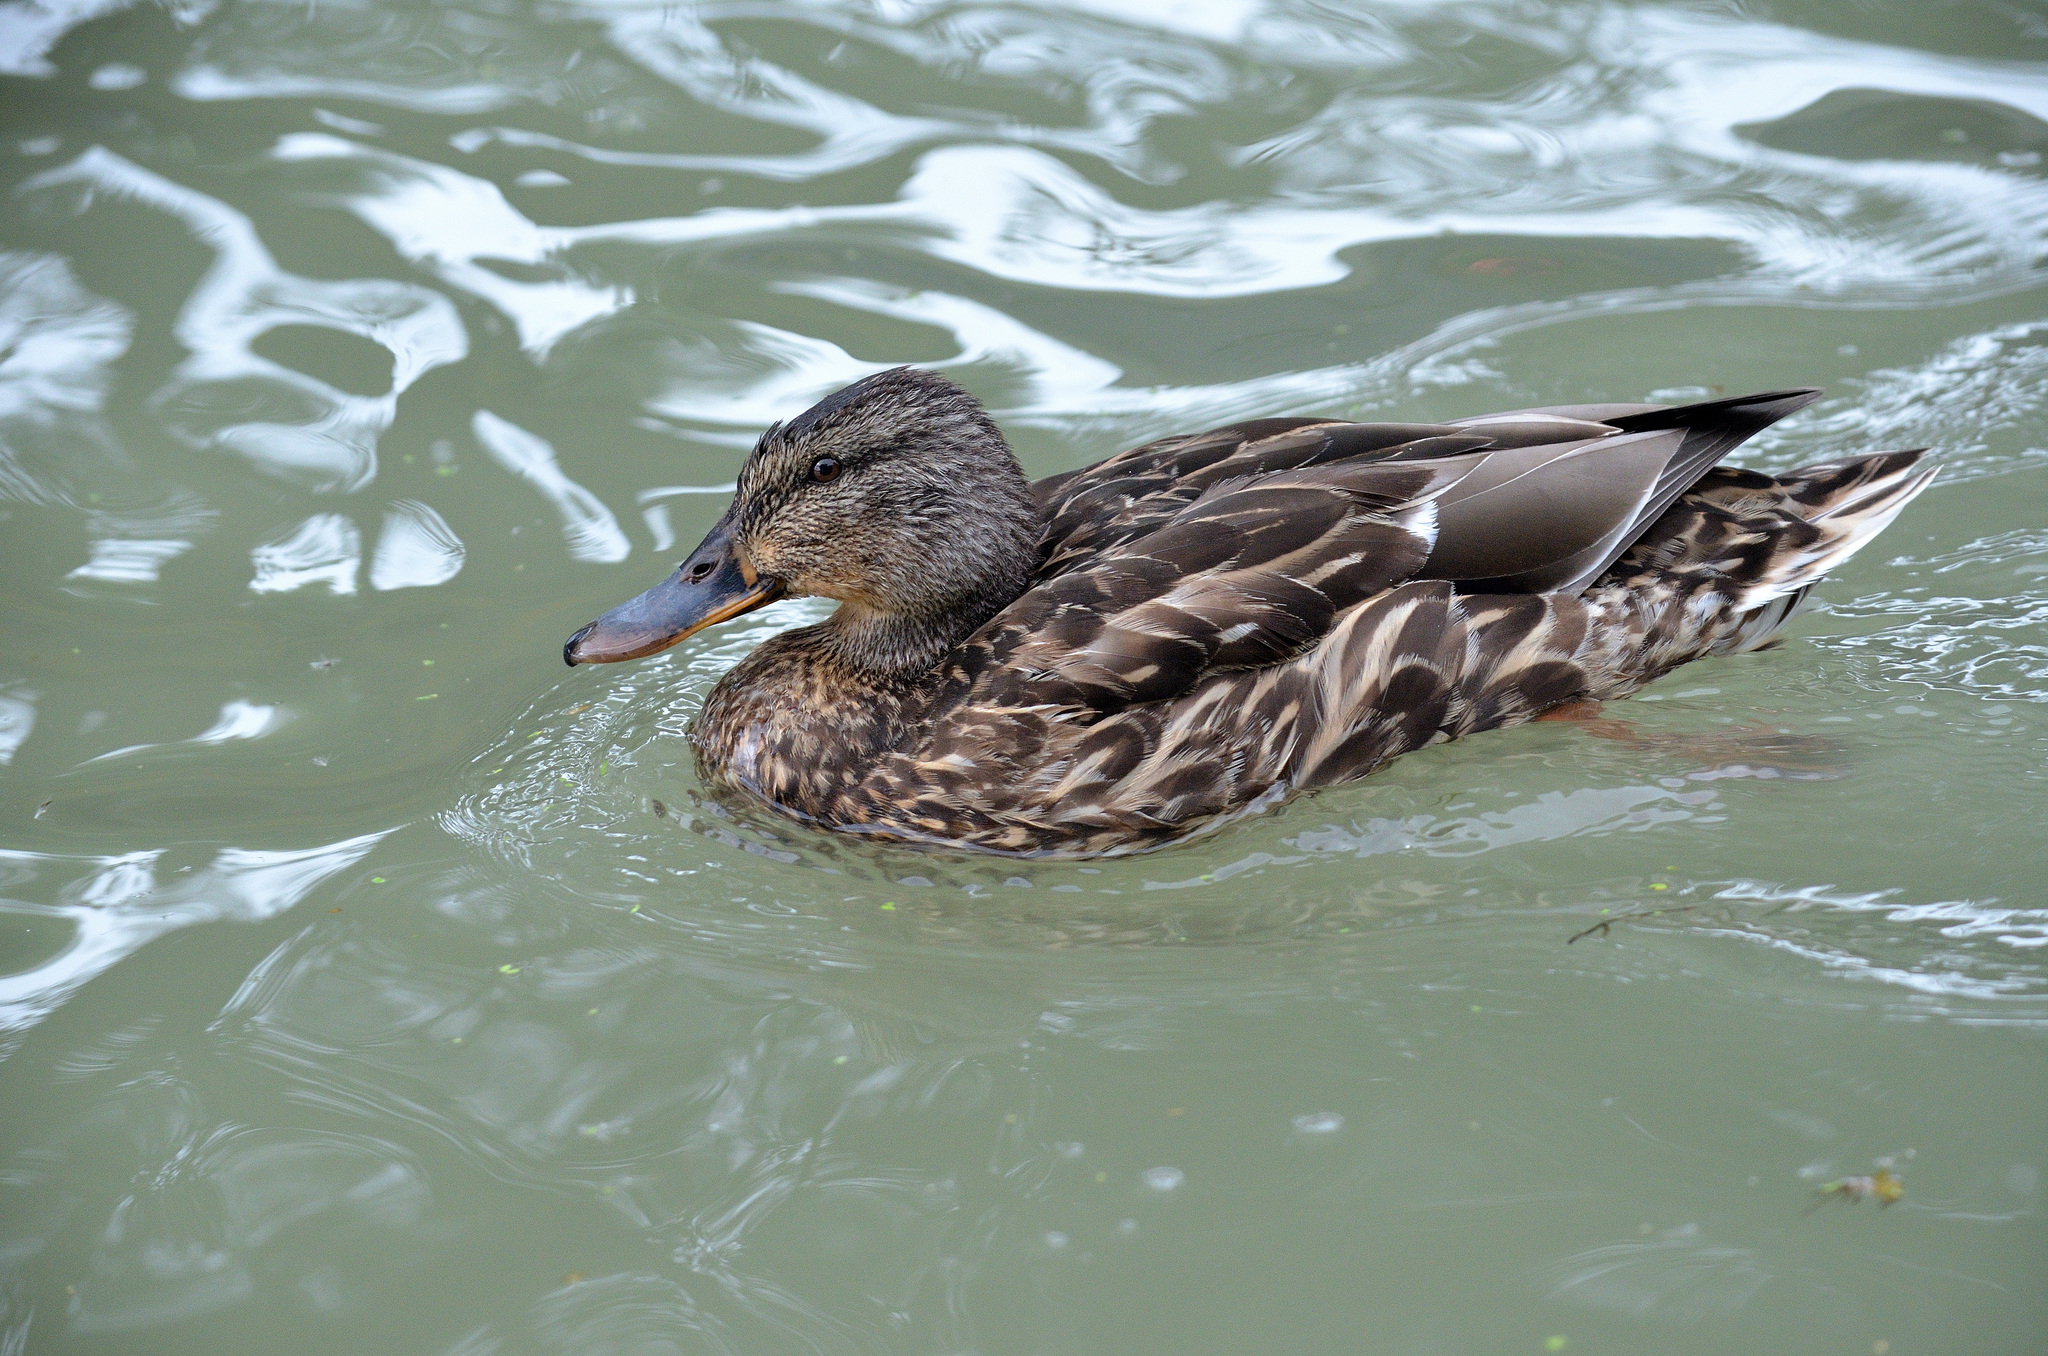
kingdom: Animalia
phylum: Chordata
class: Aves
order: Anseriformes
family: Anatidae
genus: Anas
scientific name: Anas platyrhynchos
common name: Mallard
